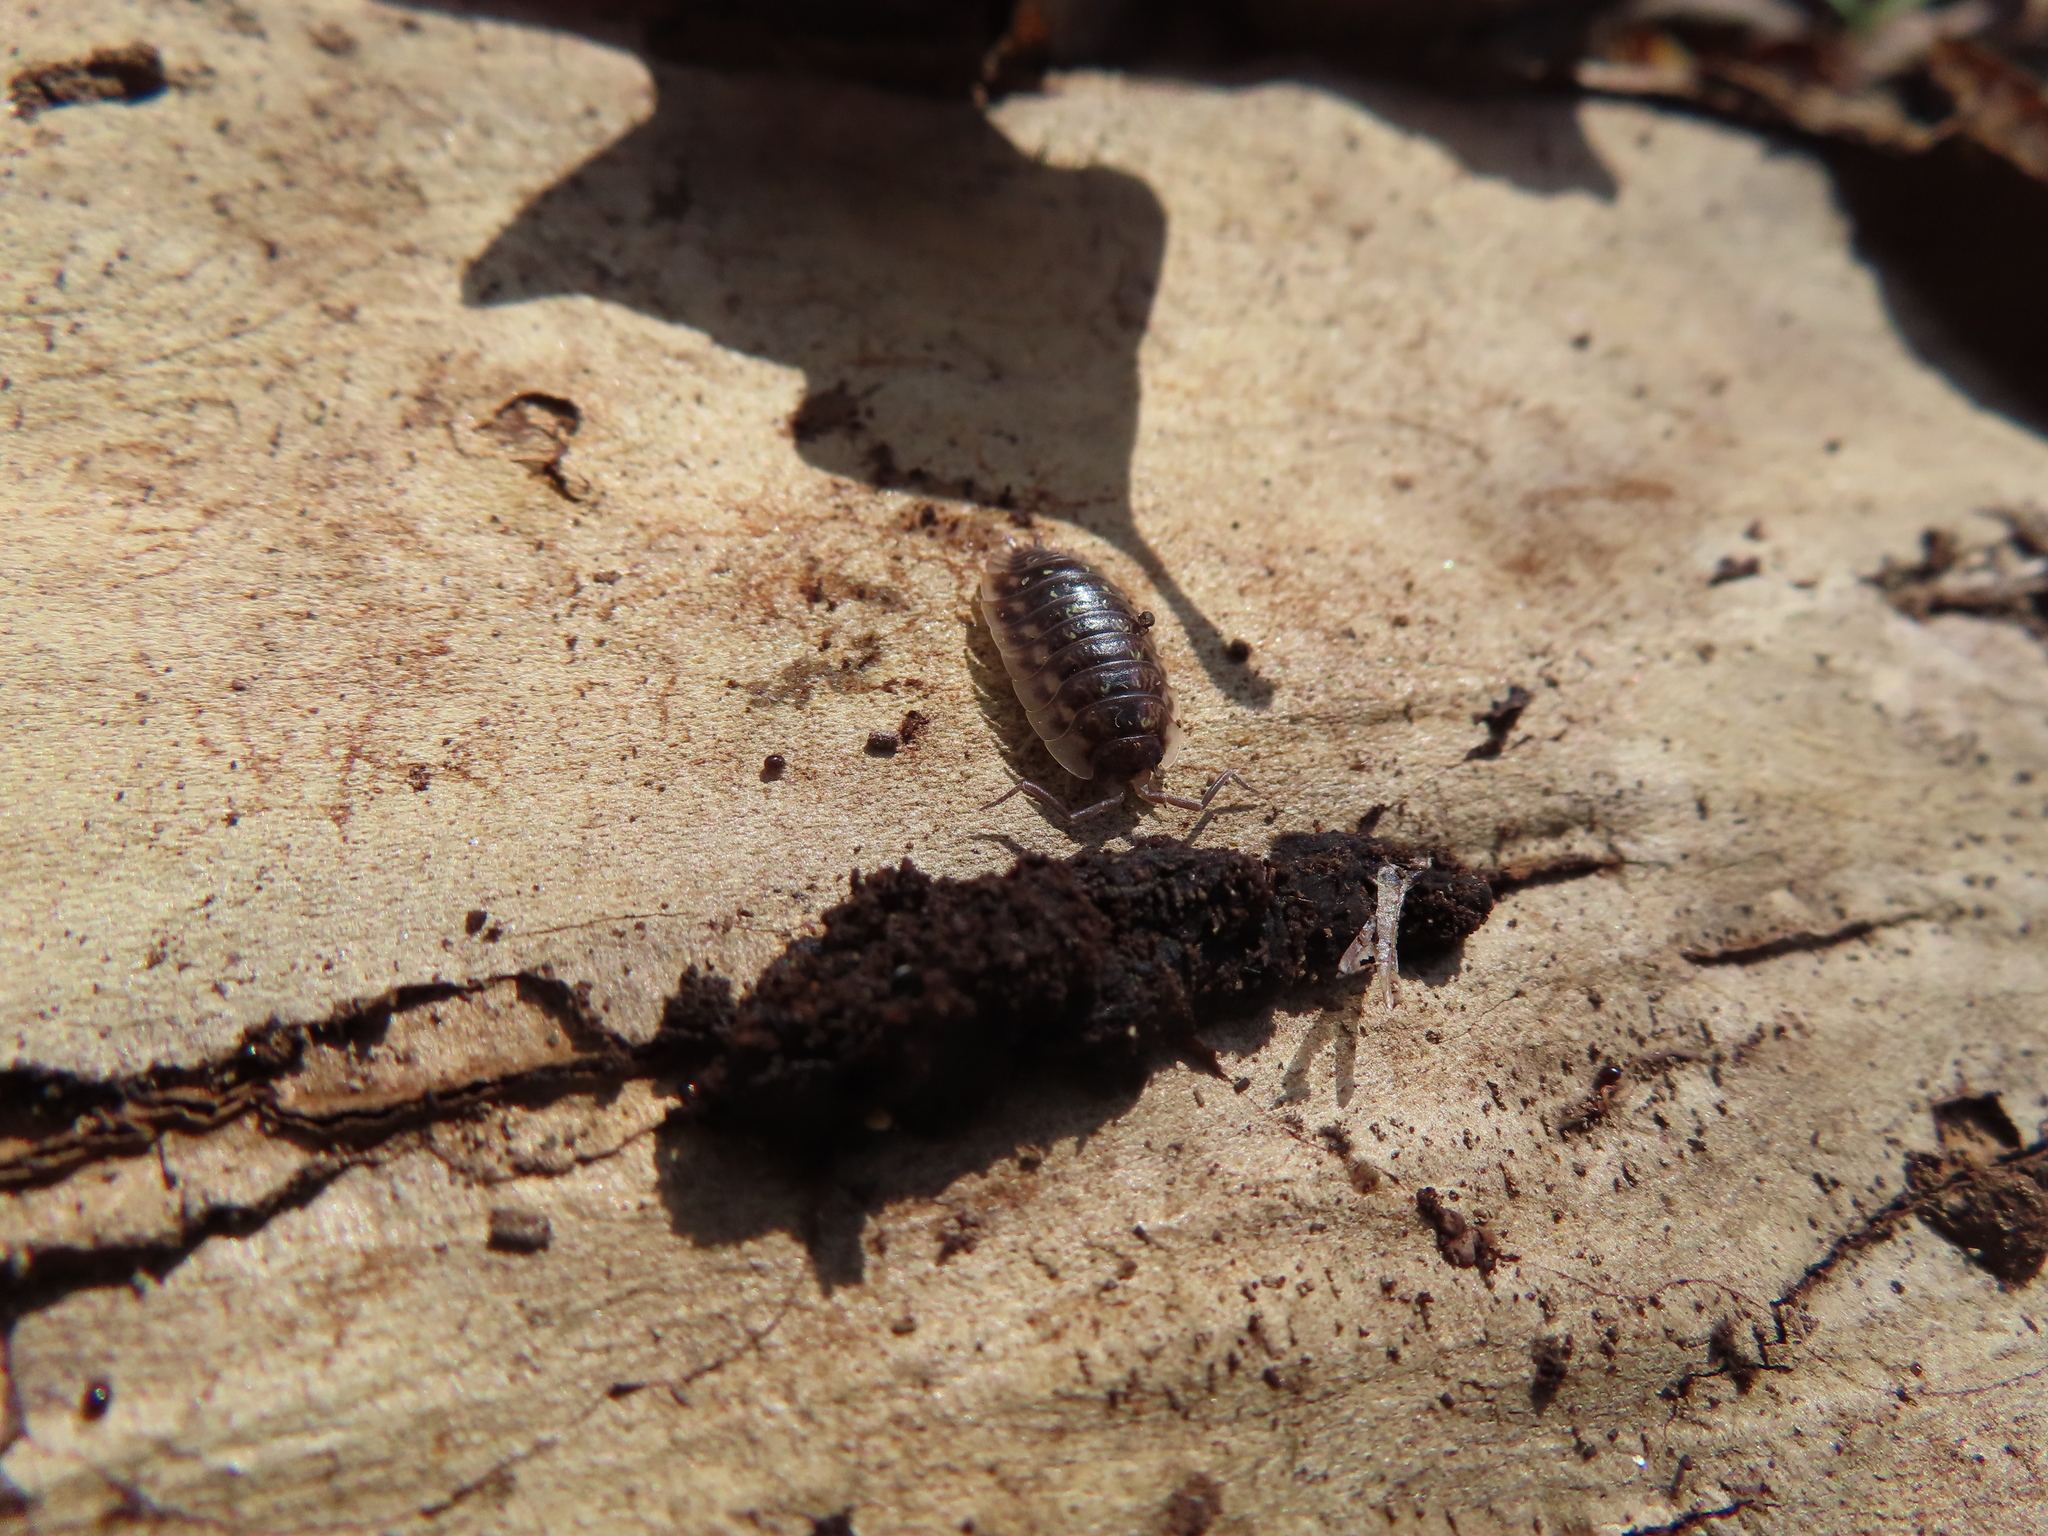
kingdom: Animalia
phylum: Arthropoda
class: Malacostraca
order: Isopoda
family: Oniscidae
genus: Oniscus
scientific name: Oniscus asellus
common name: Common shiny woodlouse
